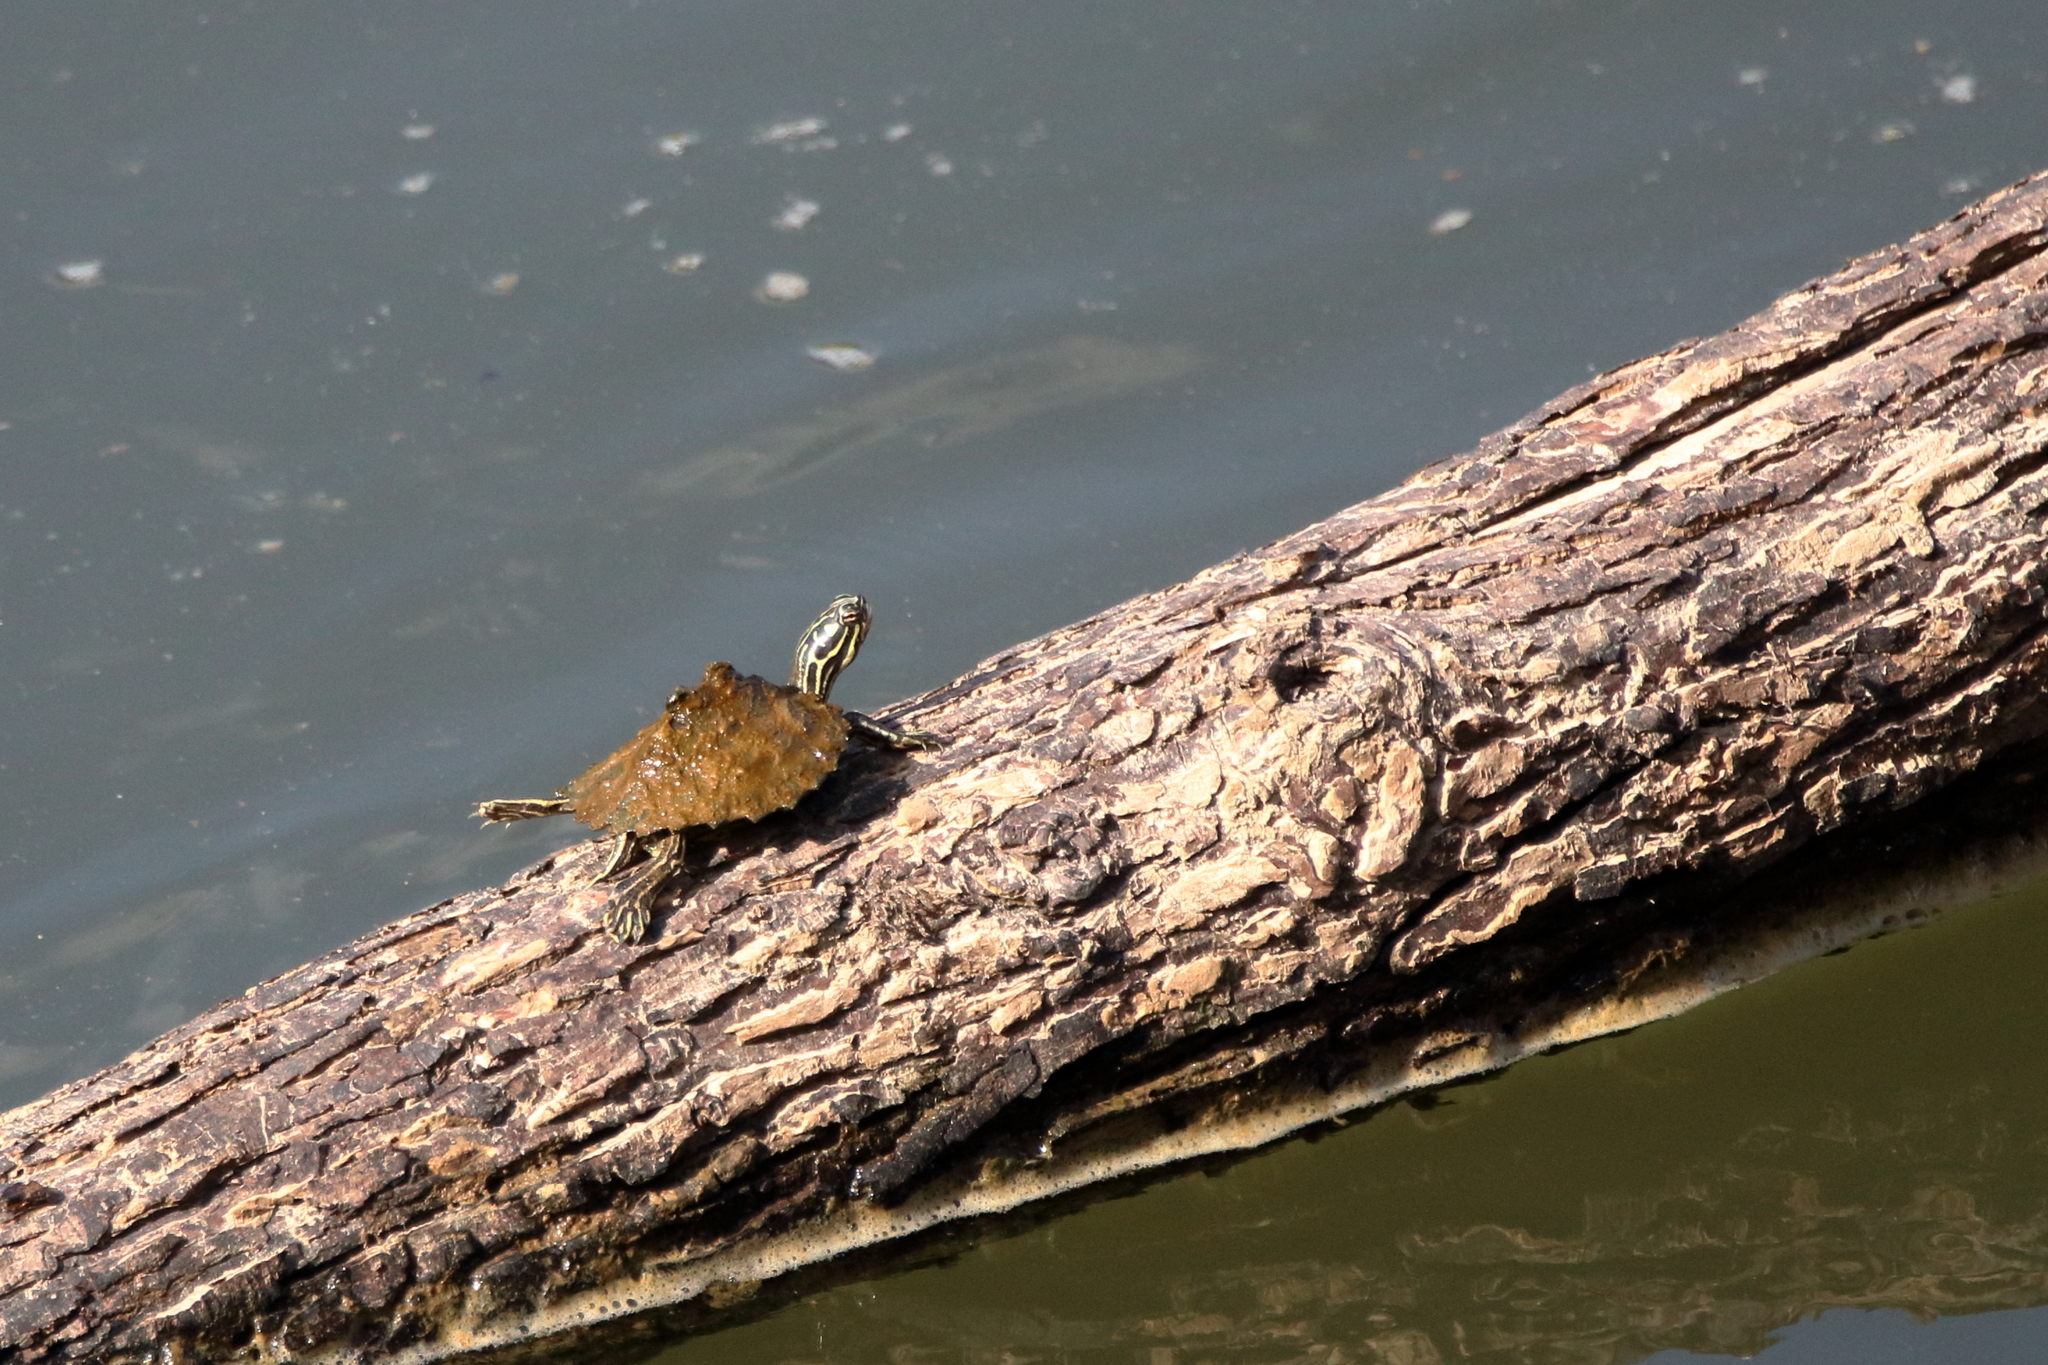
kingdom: Animalia
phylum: Chordata
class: Testudines
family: Emydidae
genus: Graptemys
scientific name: Graptemys oculifera
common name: Ringed map turtle
